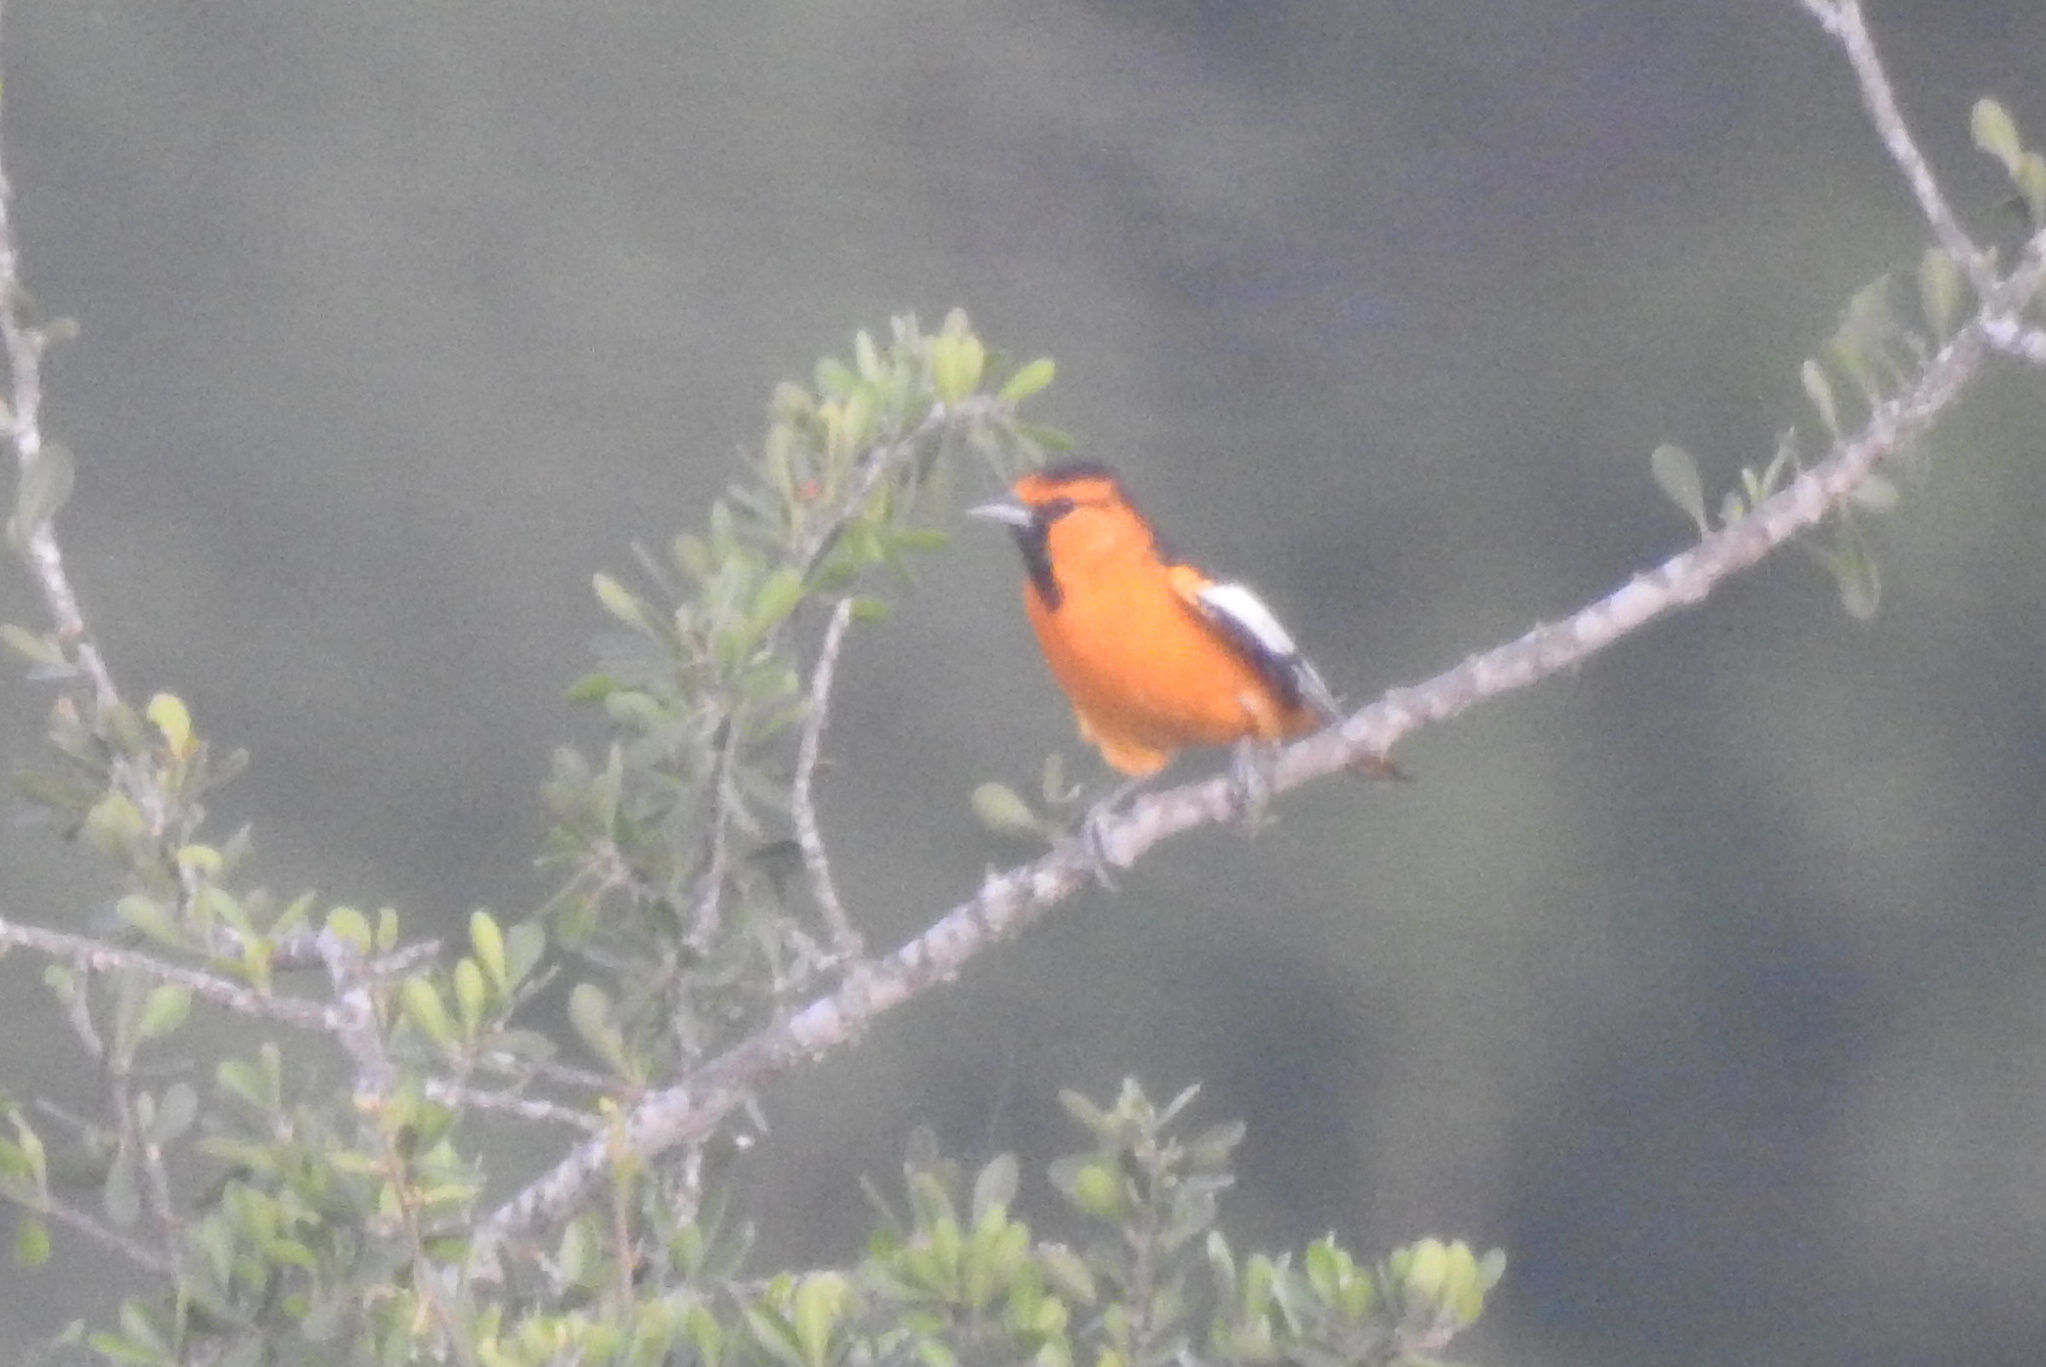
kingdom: Animalia
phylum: Chordata
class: Aves
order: Passeriformes
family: Icteridae
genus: Icterus
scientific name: Icterus bullockii
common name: Bullock's oriole
